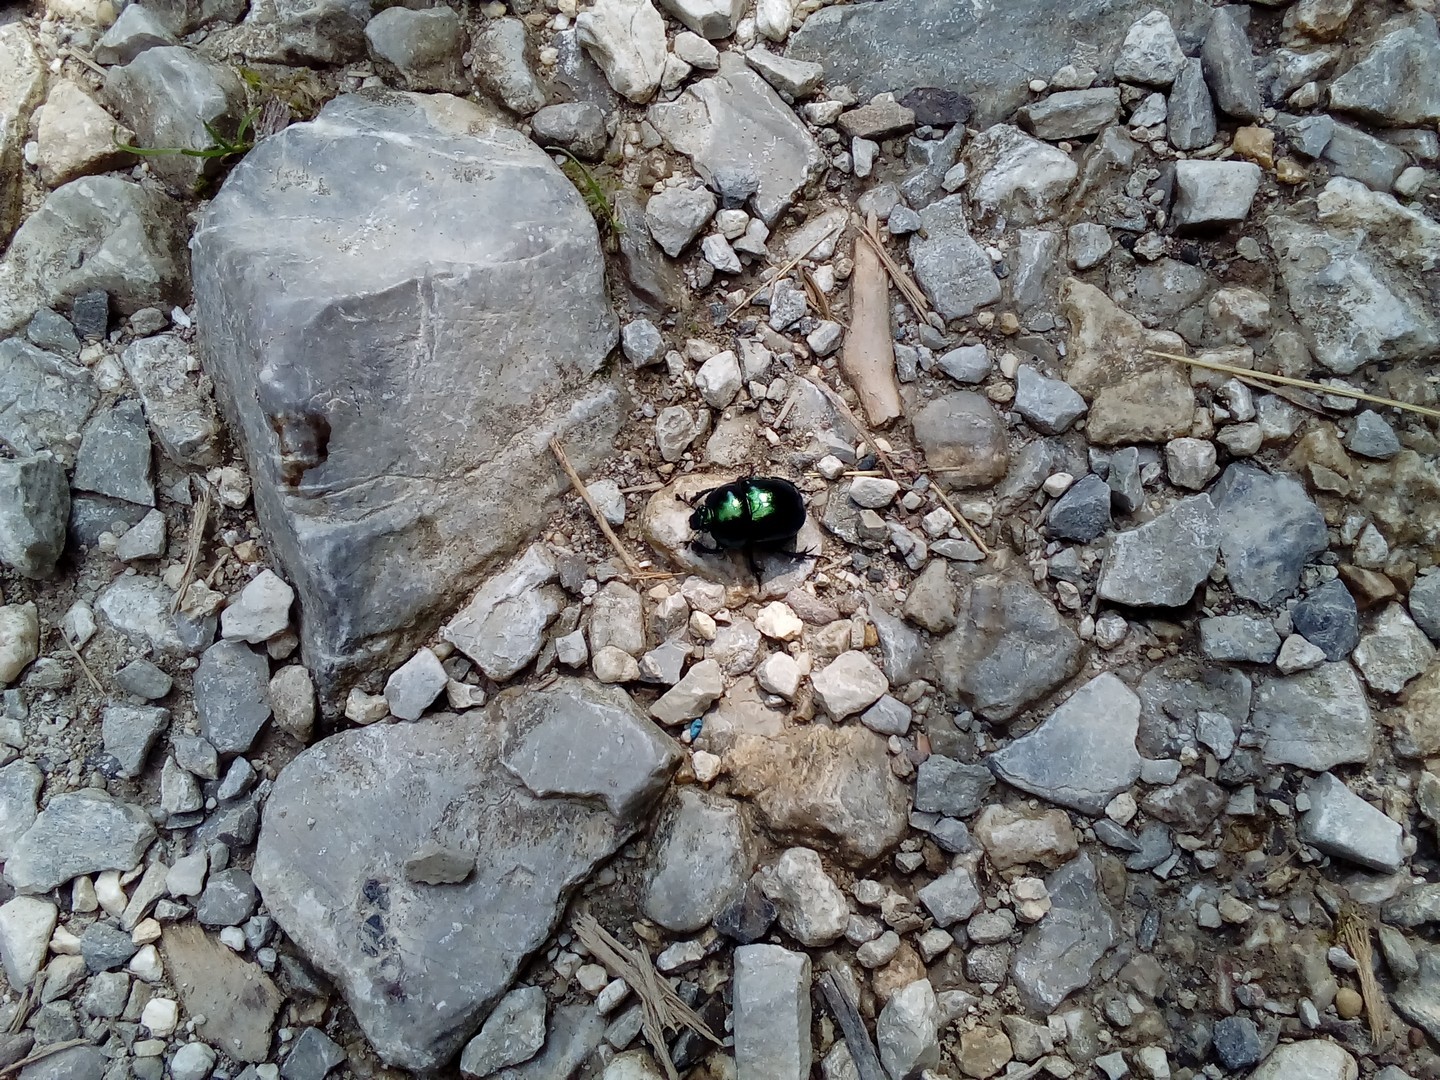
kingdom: Animalia
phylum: Arthropoda
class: Insecta
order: Coleoptera
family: Geotrupidae
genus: Trypocopris
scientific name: Trypocopris vernalis
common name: Spring dumbledor
